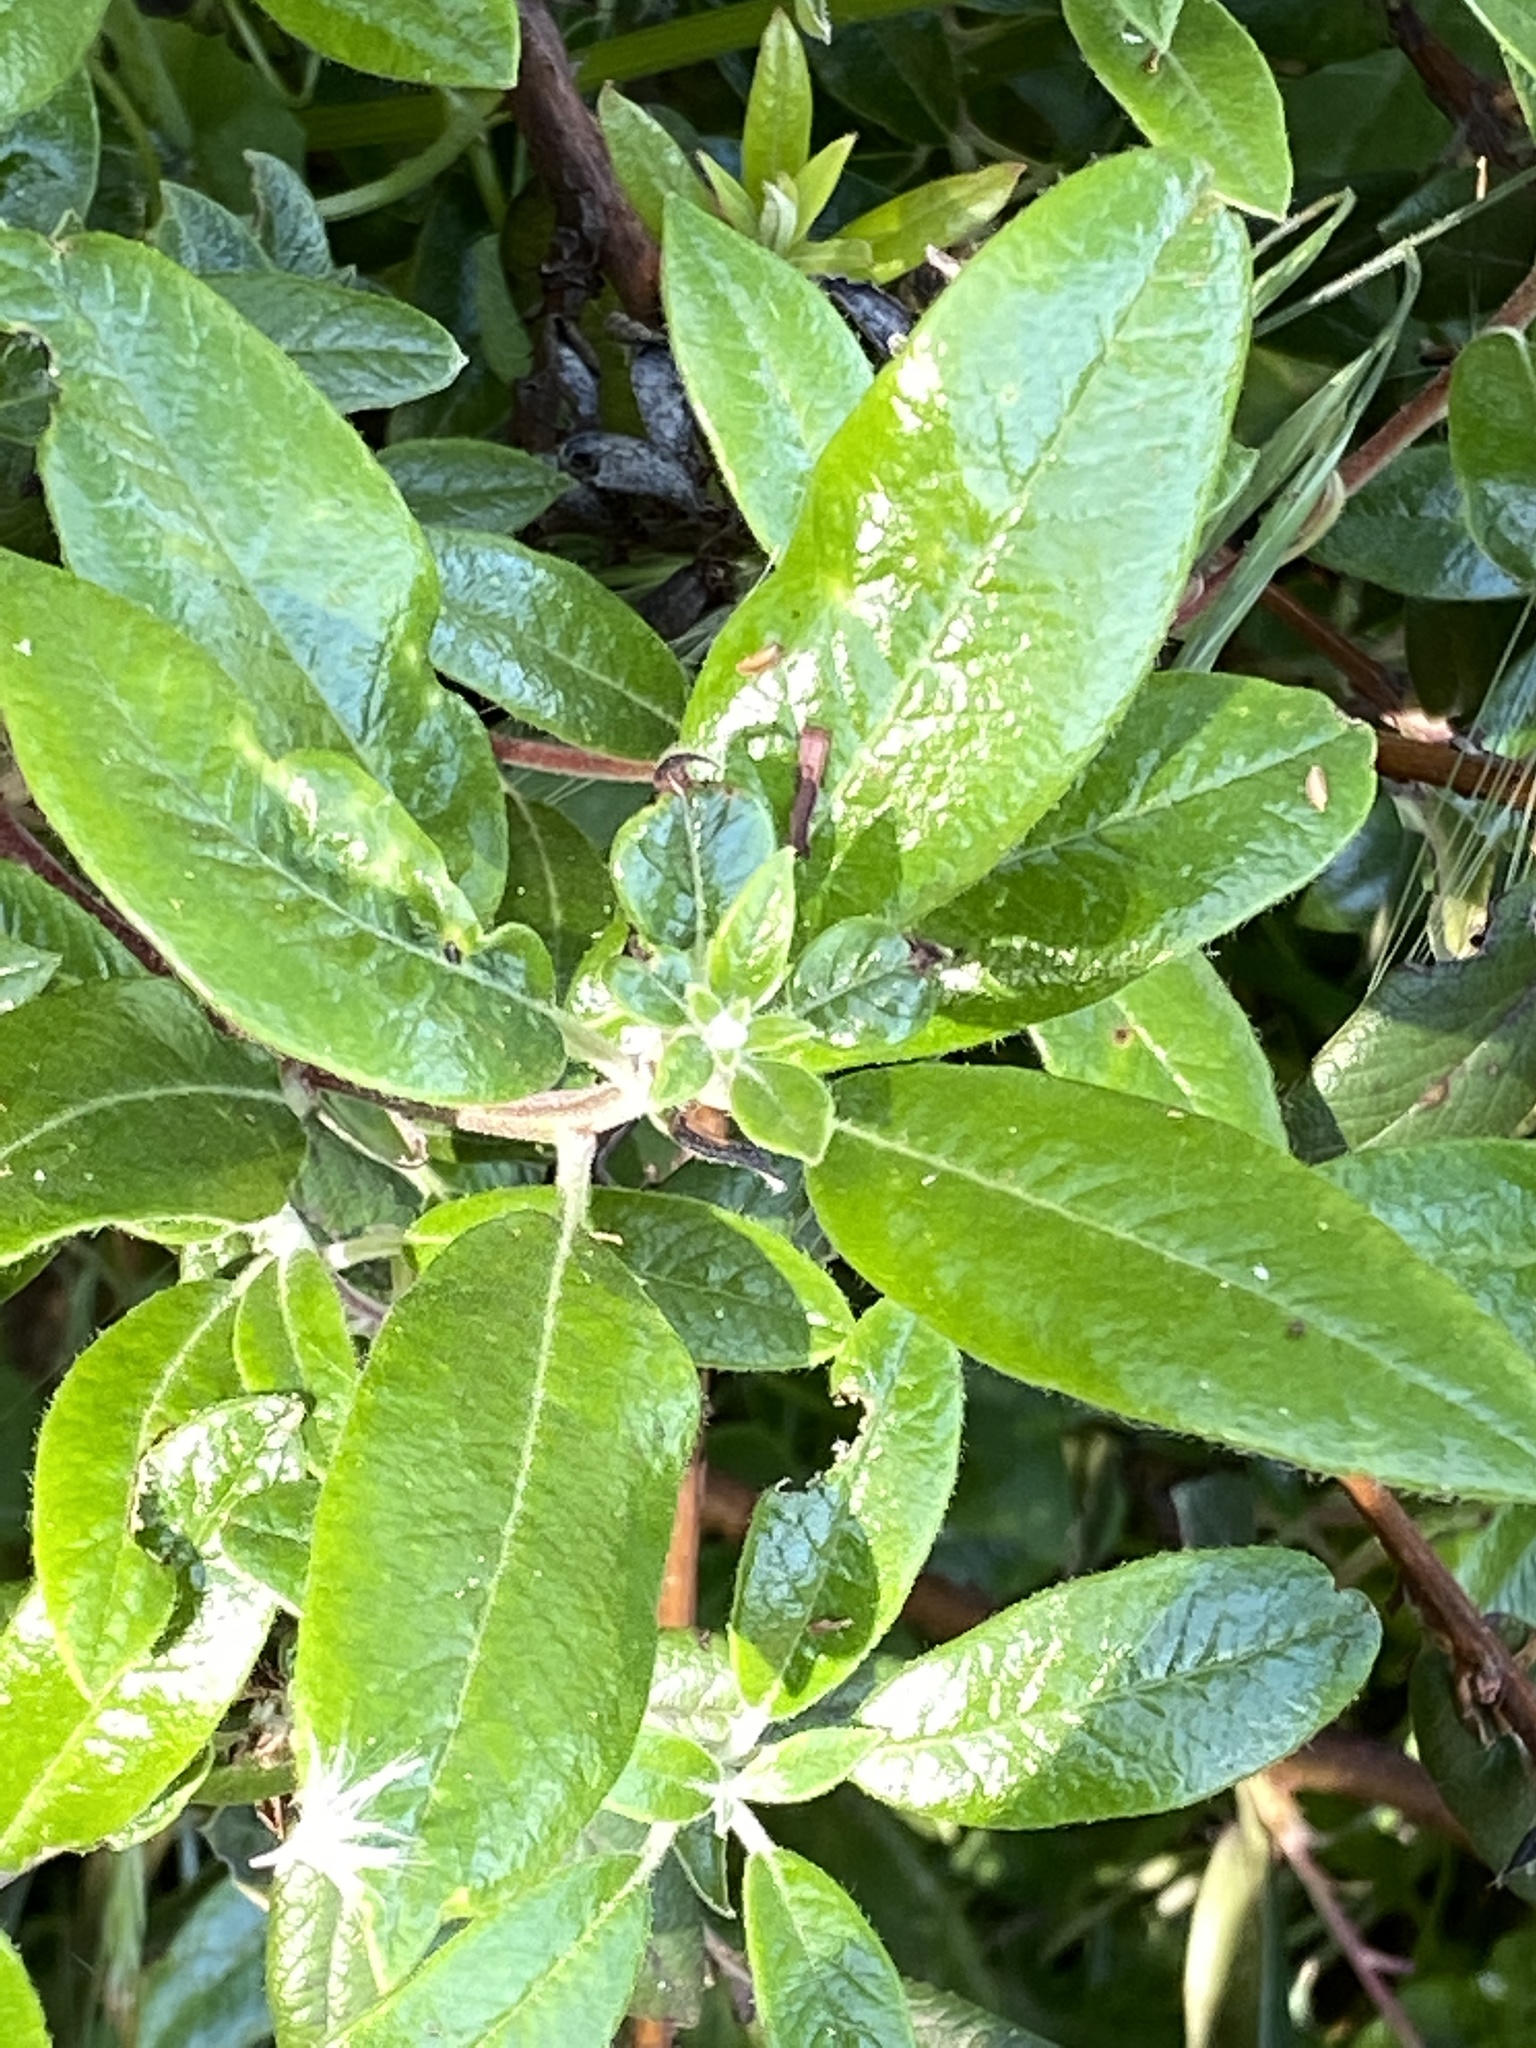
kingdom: Plantae
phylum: Tracheophyta
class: Magnoliopsida
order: Ericales
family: Ericaceae
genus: Arctostaphylos
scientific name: Arctostaphylos bicolor
